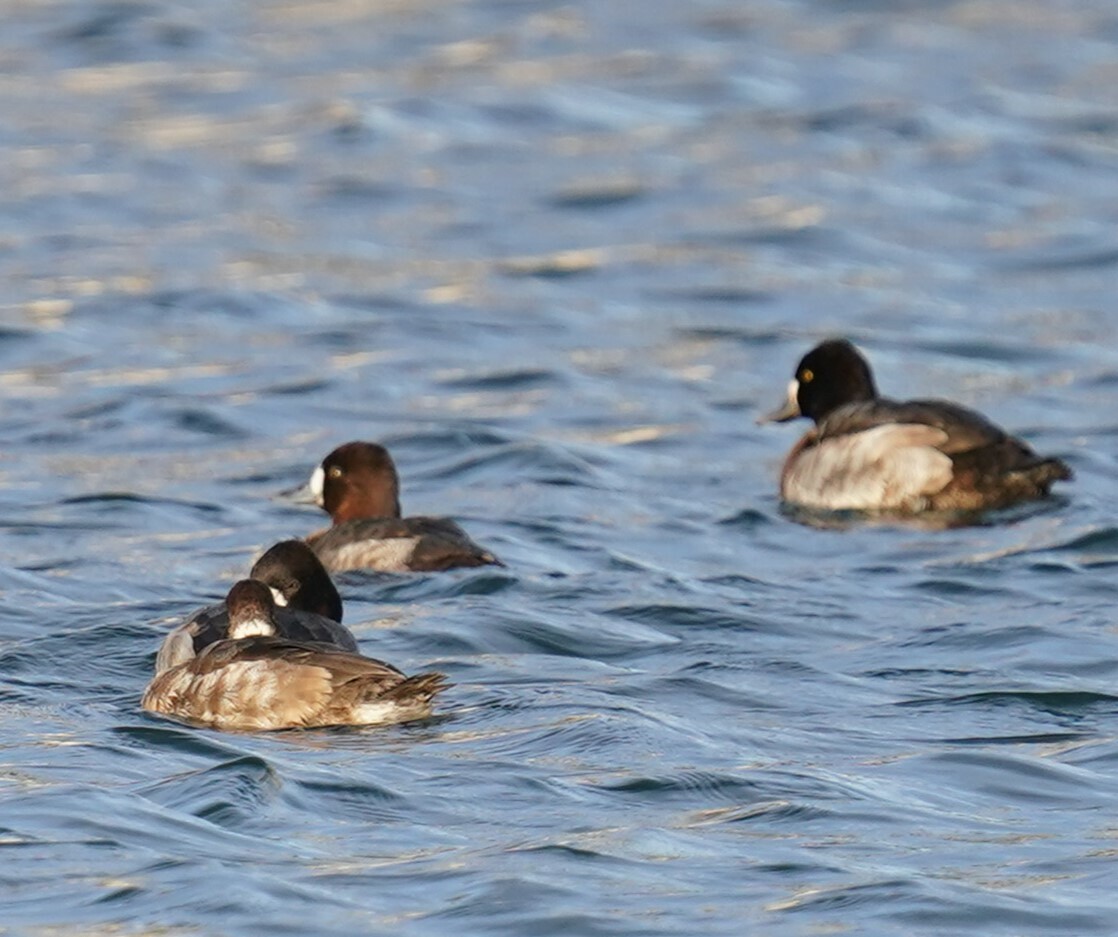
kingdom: Animalia
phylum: Chordata
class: Aves
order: Anseriformes
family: Anatidae
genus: Aythya
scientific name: Aythya affinis
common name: Lesser scaup
